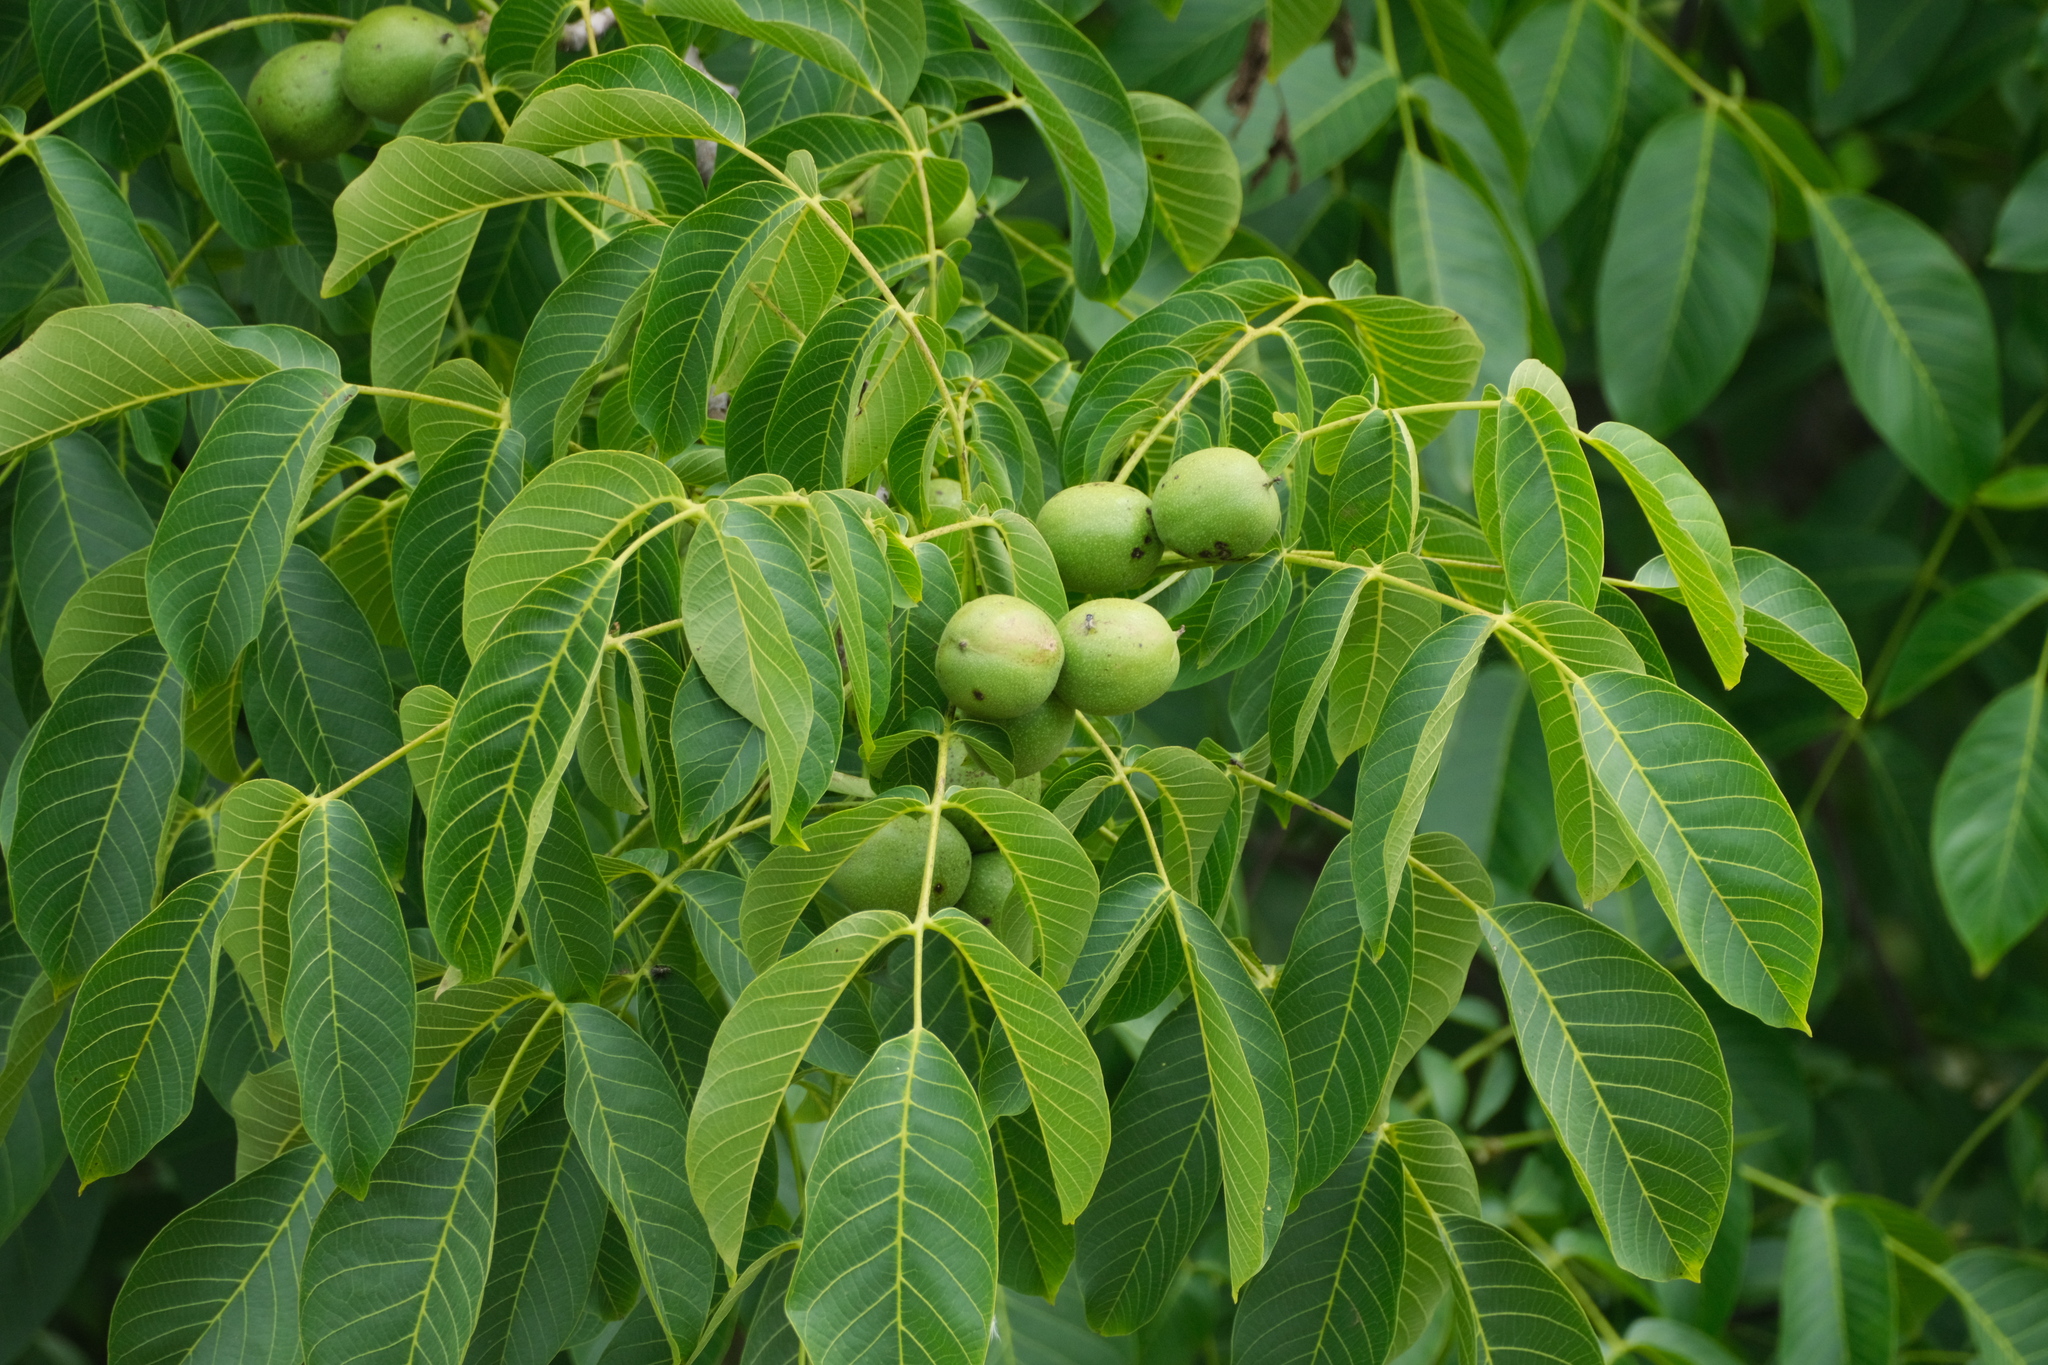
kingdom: Plantae
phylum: Tracheophyta
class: Magnoliopsida
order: Fagales
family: Juglandaceae
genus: Juglans
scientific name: Juglans regia
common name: Walnut
